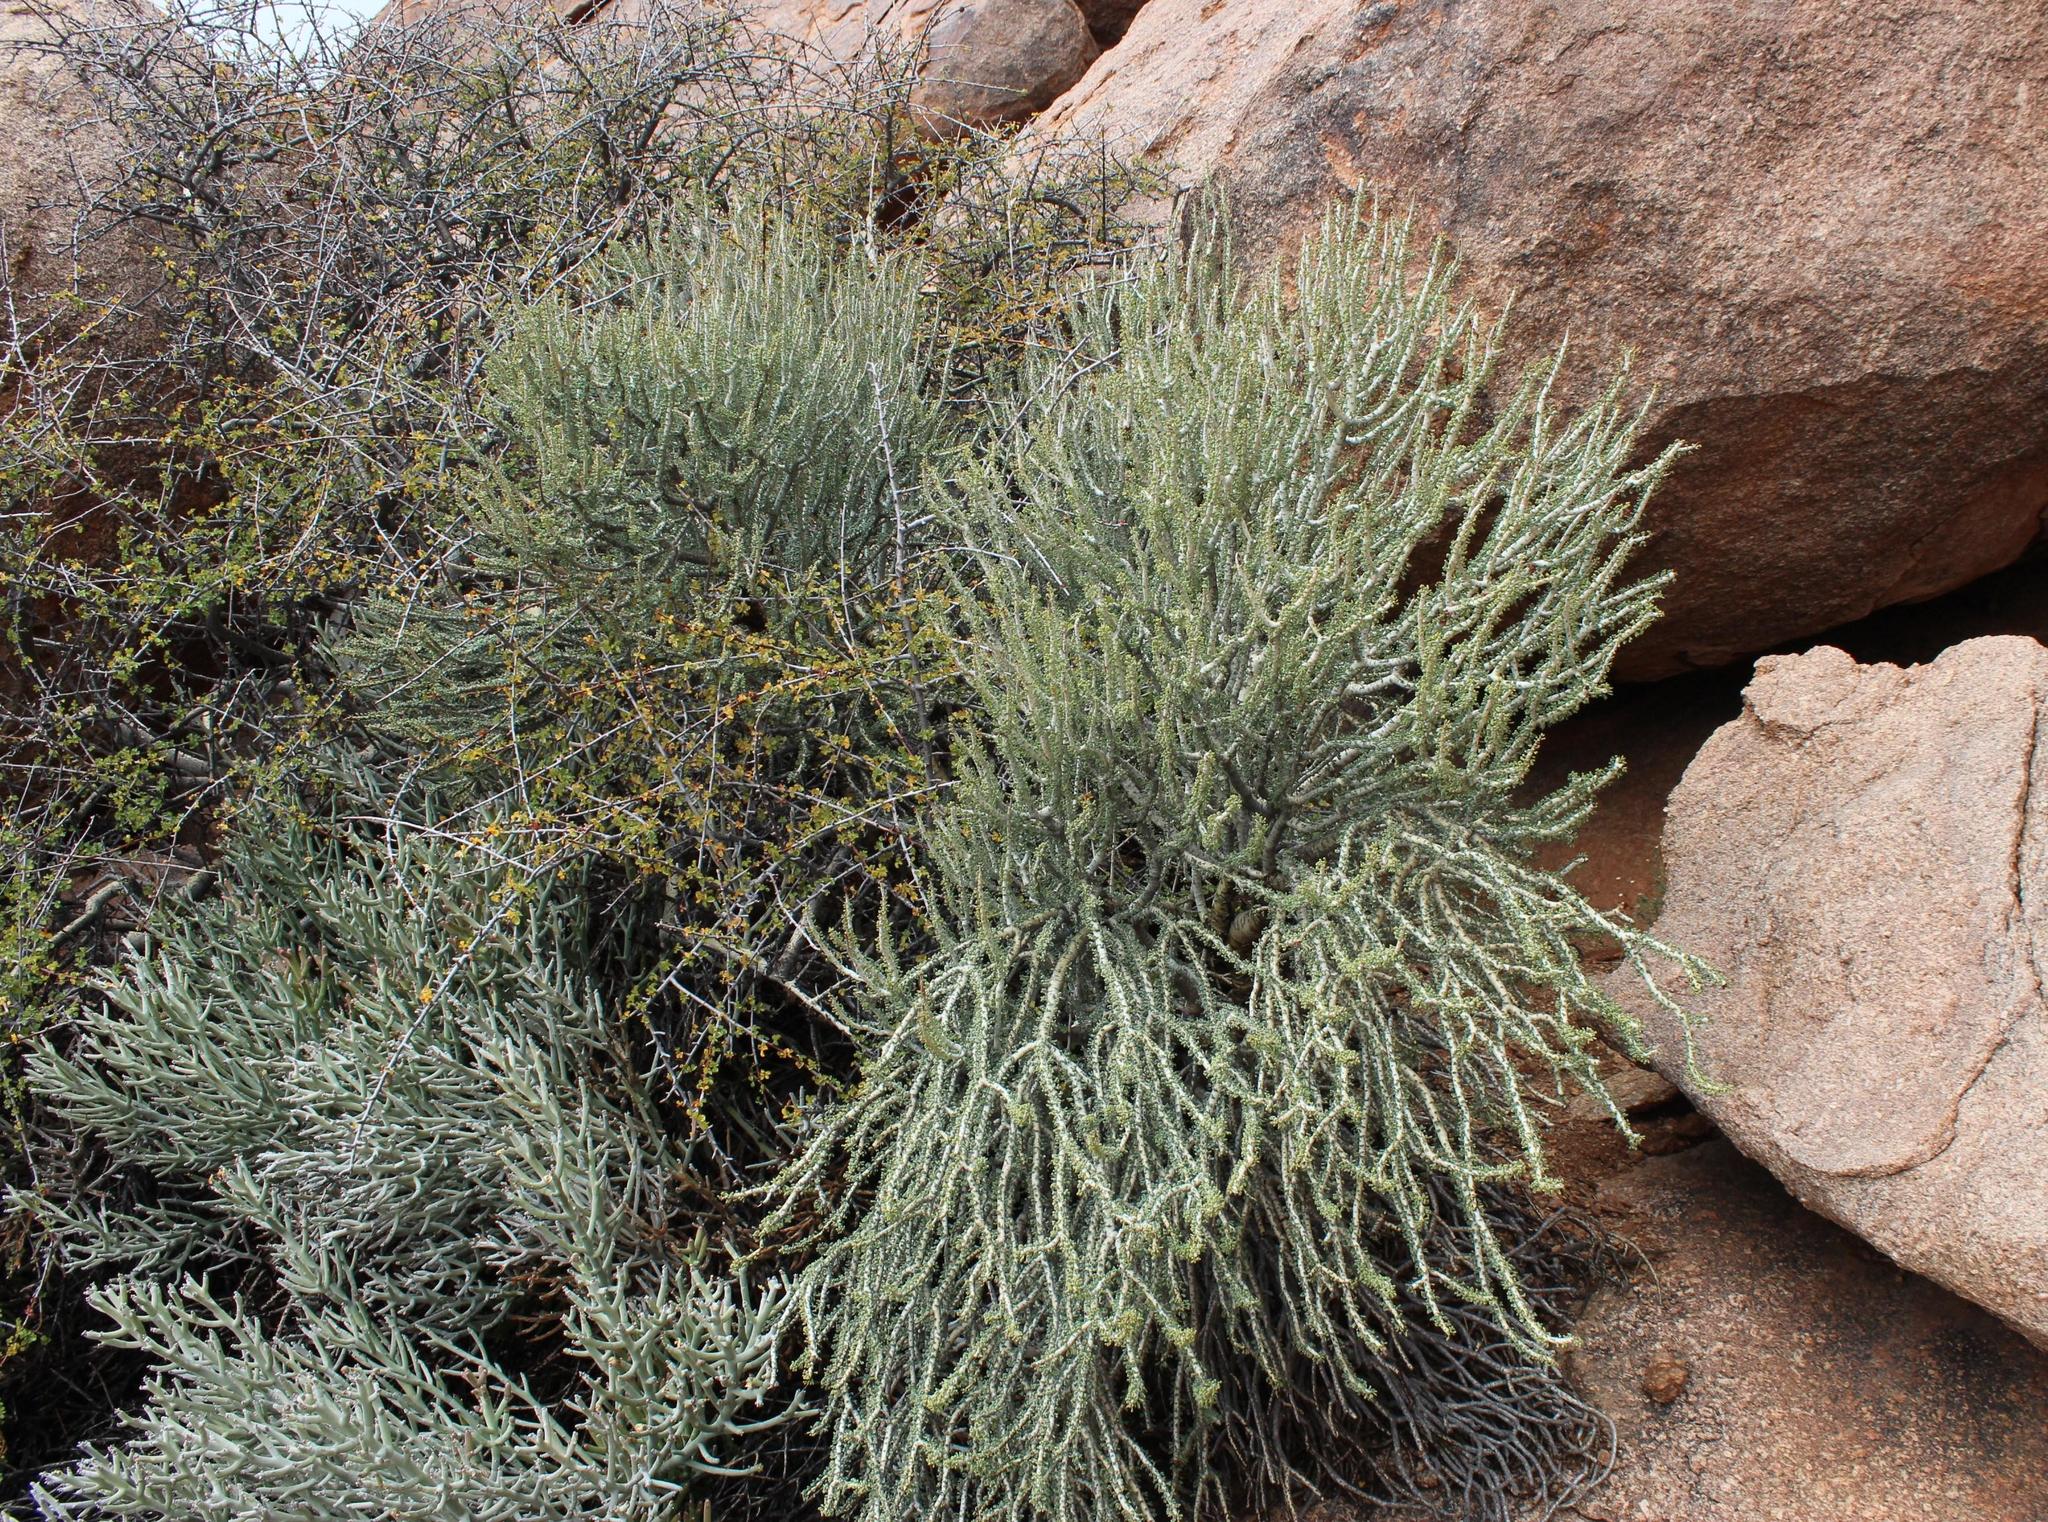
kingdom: Plantae
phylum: Tracheophyta
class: Magnoliopsida
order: Caryophyllales
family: Didiereaceae
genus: Portulacaria
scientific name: Portulacaria namaquensis
